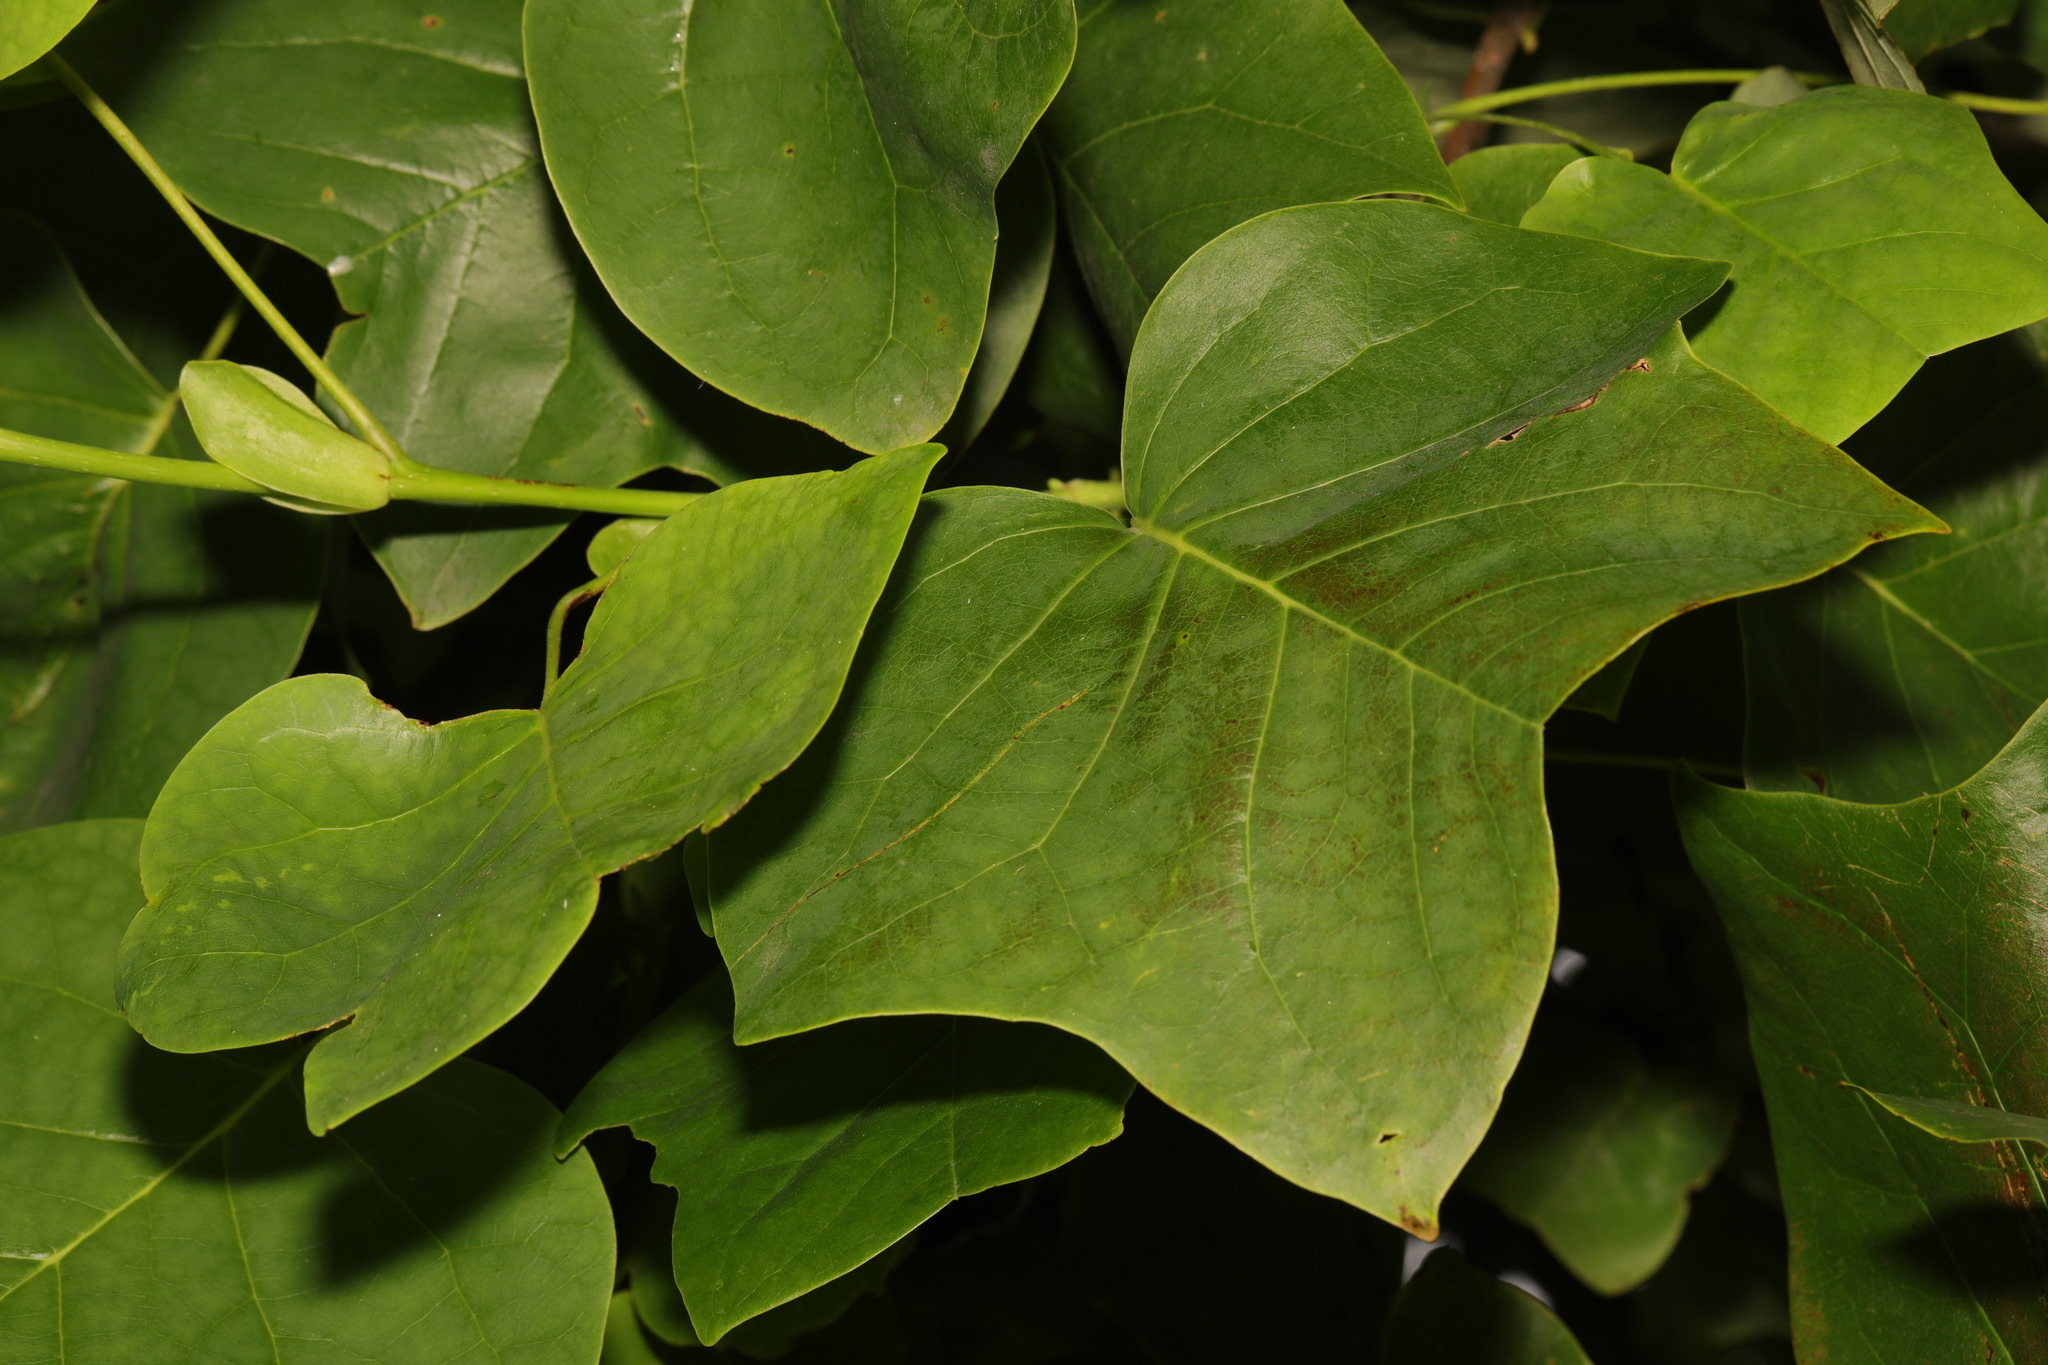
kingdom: Plantae
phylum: Tracheophyta
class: Magnoliopsida
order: Magnoliales
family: Magnoliaceae
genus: Liriodendron
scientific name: Liriodendron tulipifera
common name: Tulip tree
